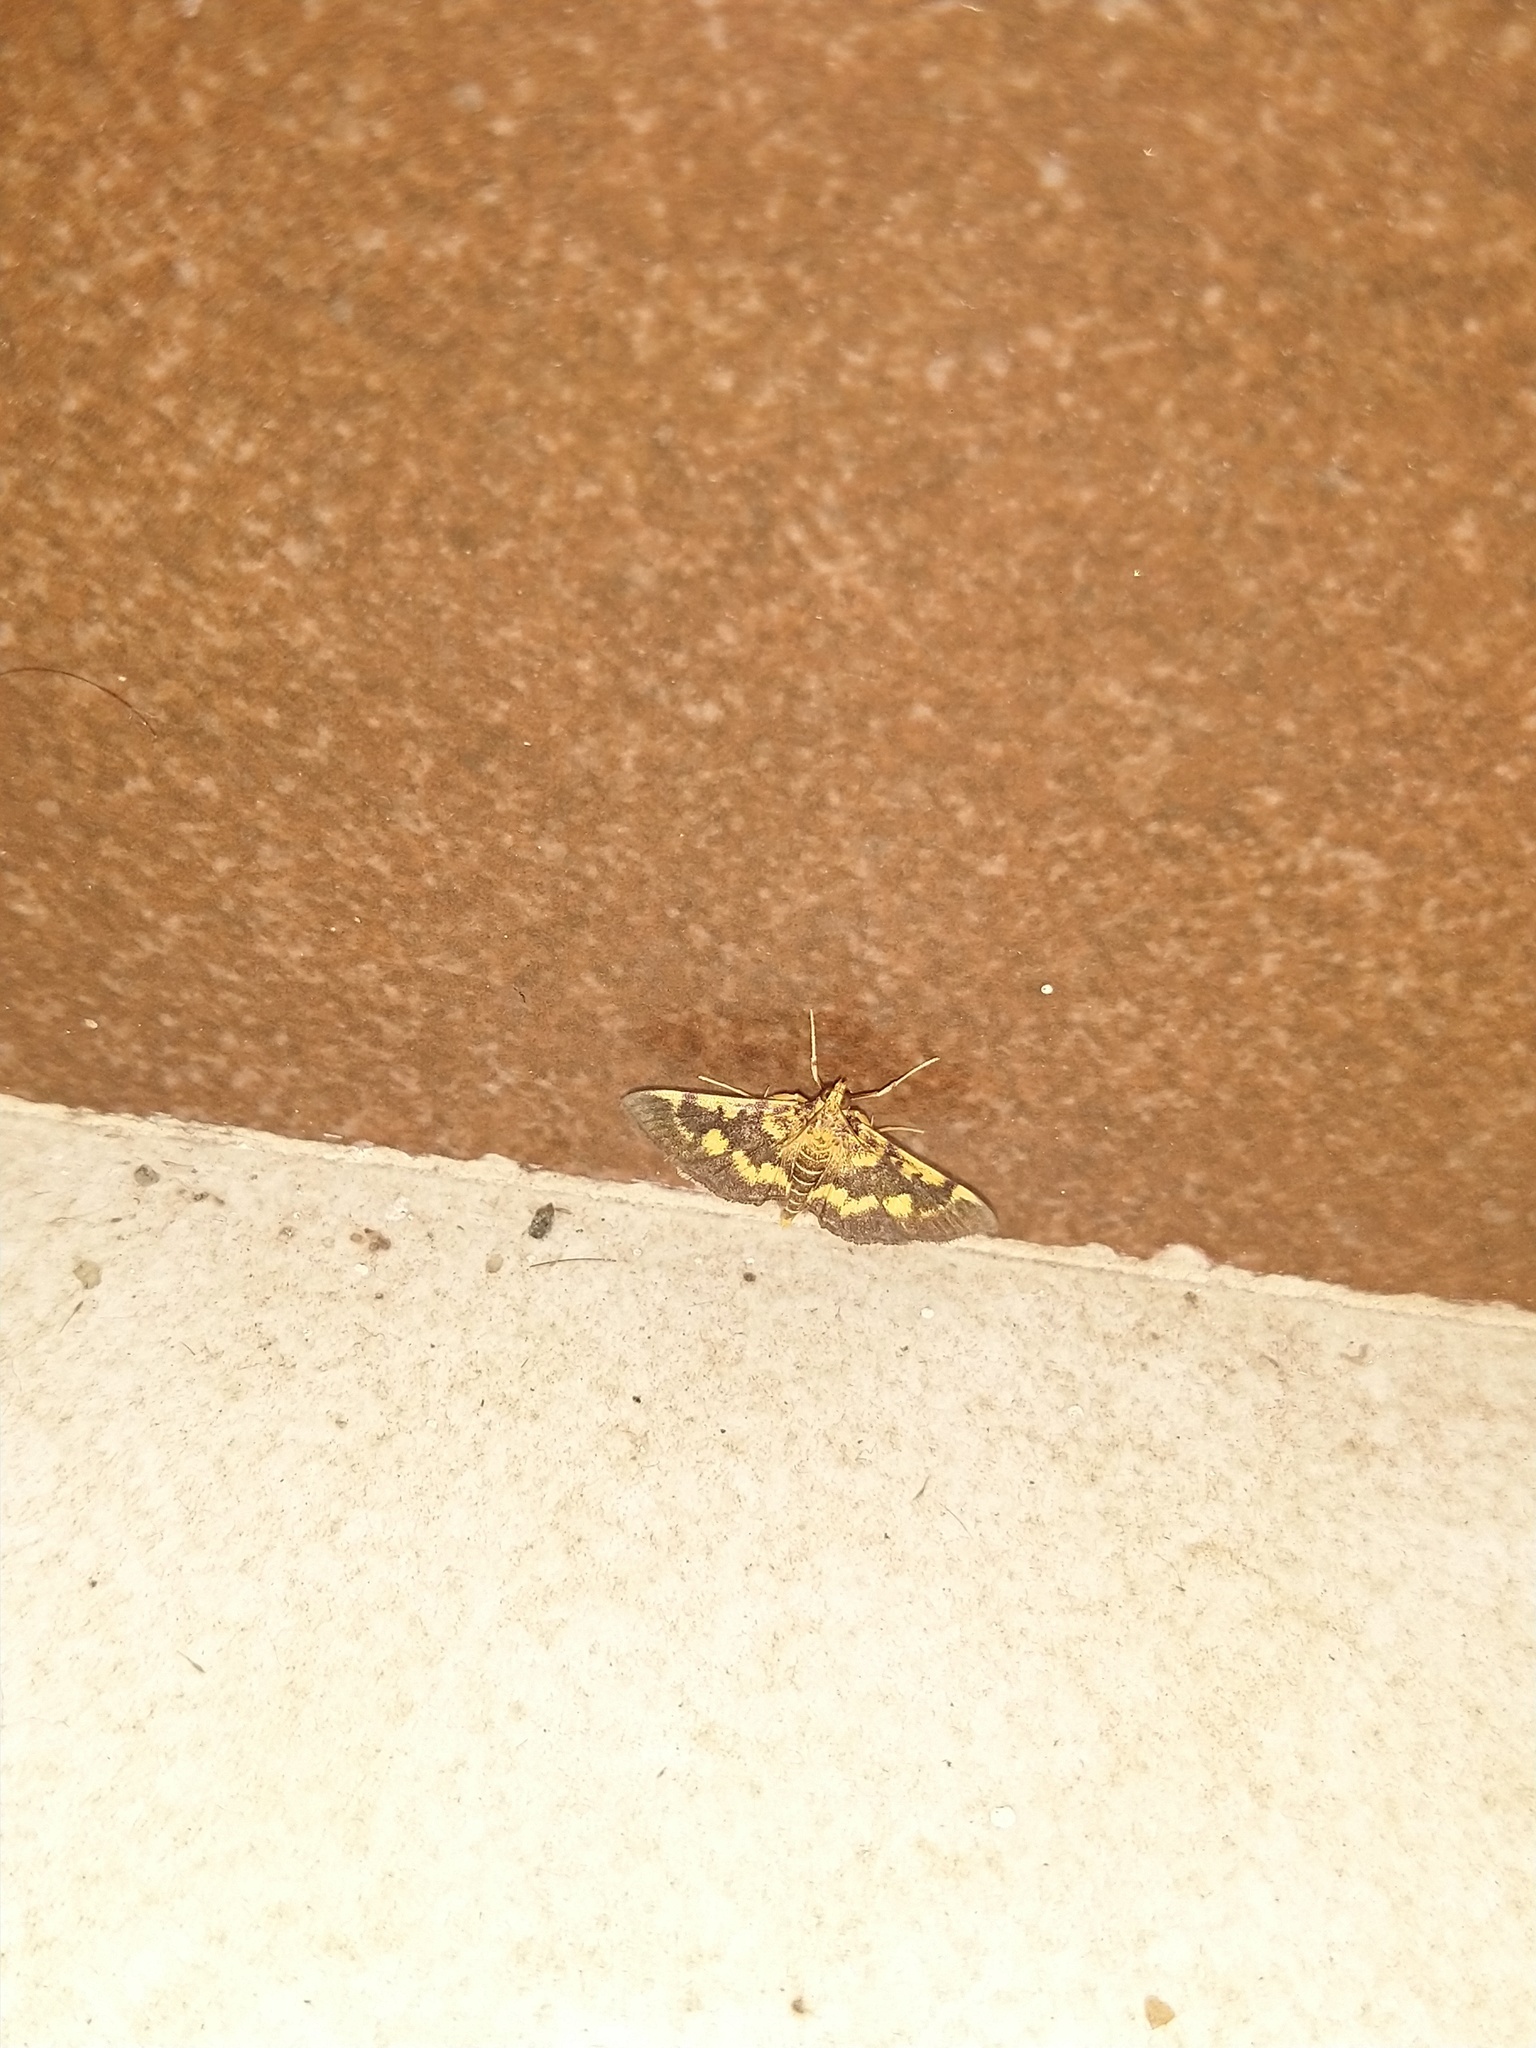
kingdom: Animalia
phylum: Arthropoda
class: Insecta
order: Lepidoptera
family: Crambidae
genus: Omiodes
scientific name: Omiodes diemenalis
